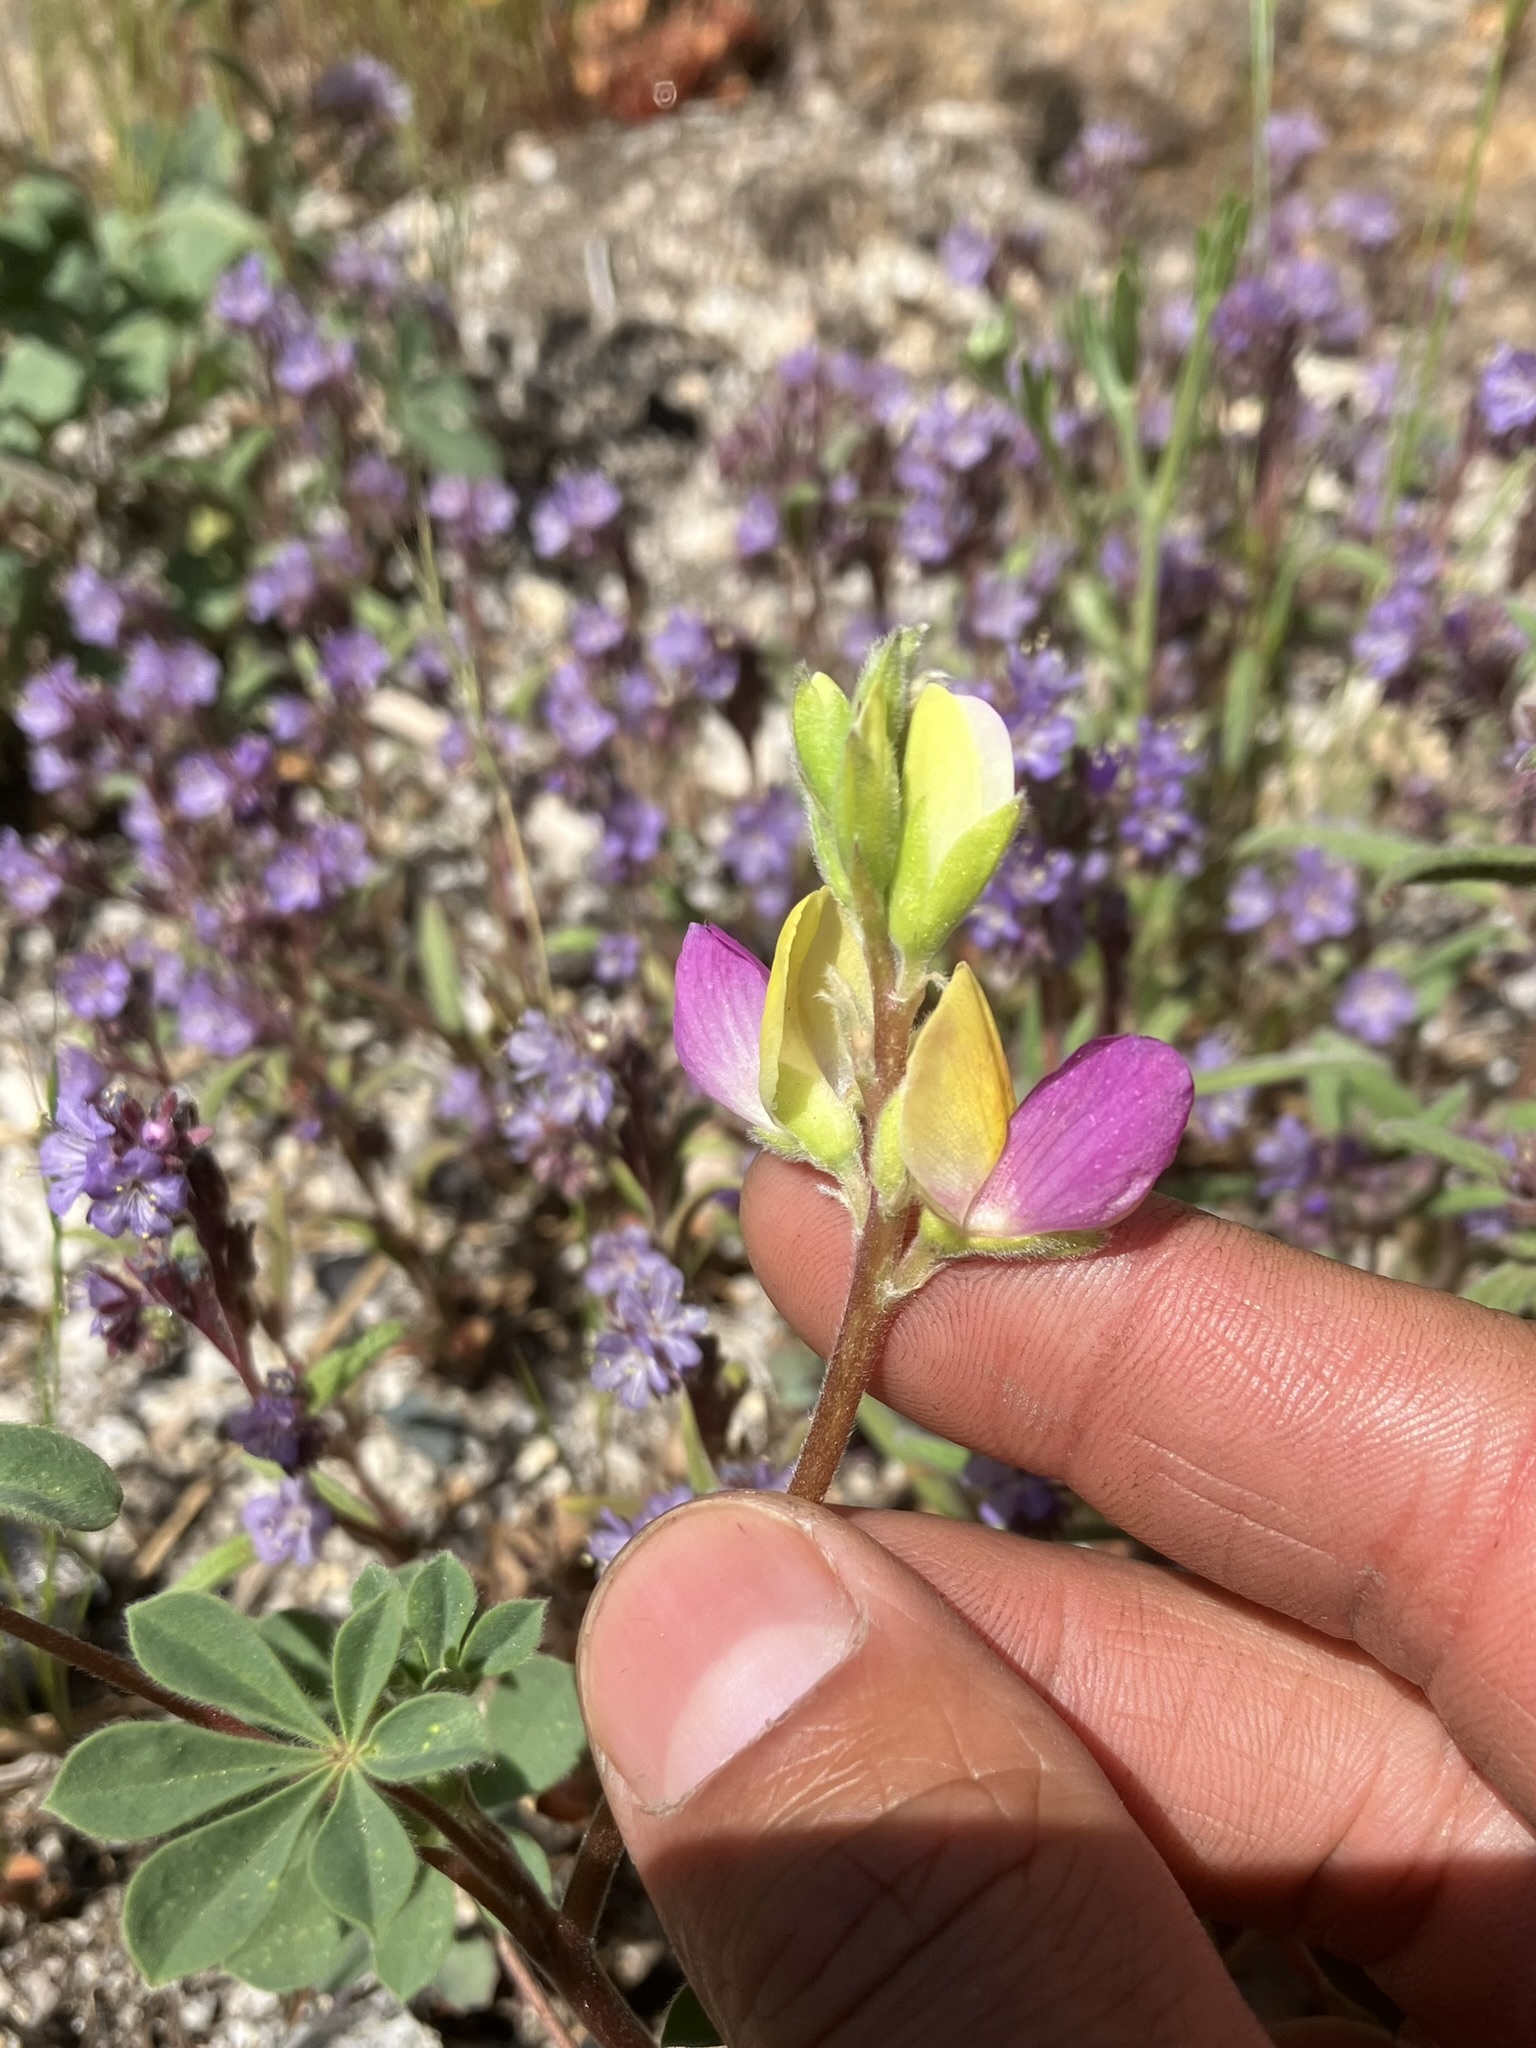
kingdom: Plantae
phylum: Tracheophyta
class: Magnoliopsida
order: Fabales
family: Fabaceae
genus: Lupinus
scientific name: Lupinus stiversii
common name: Harlequin lupine
